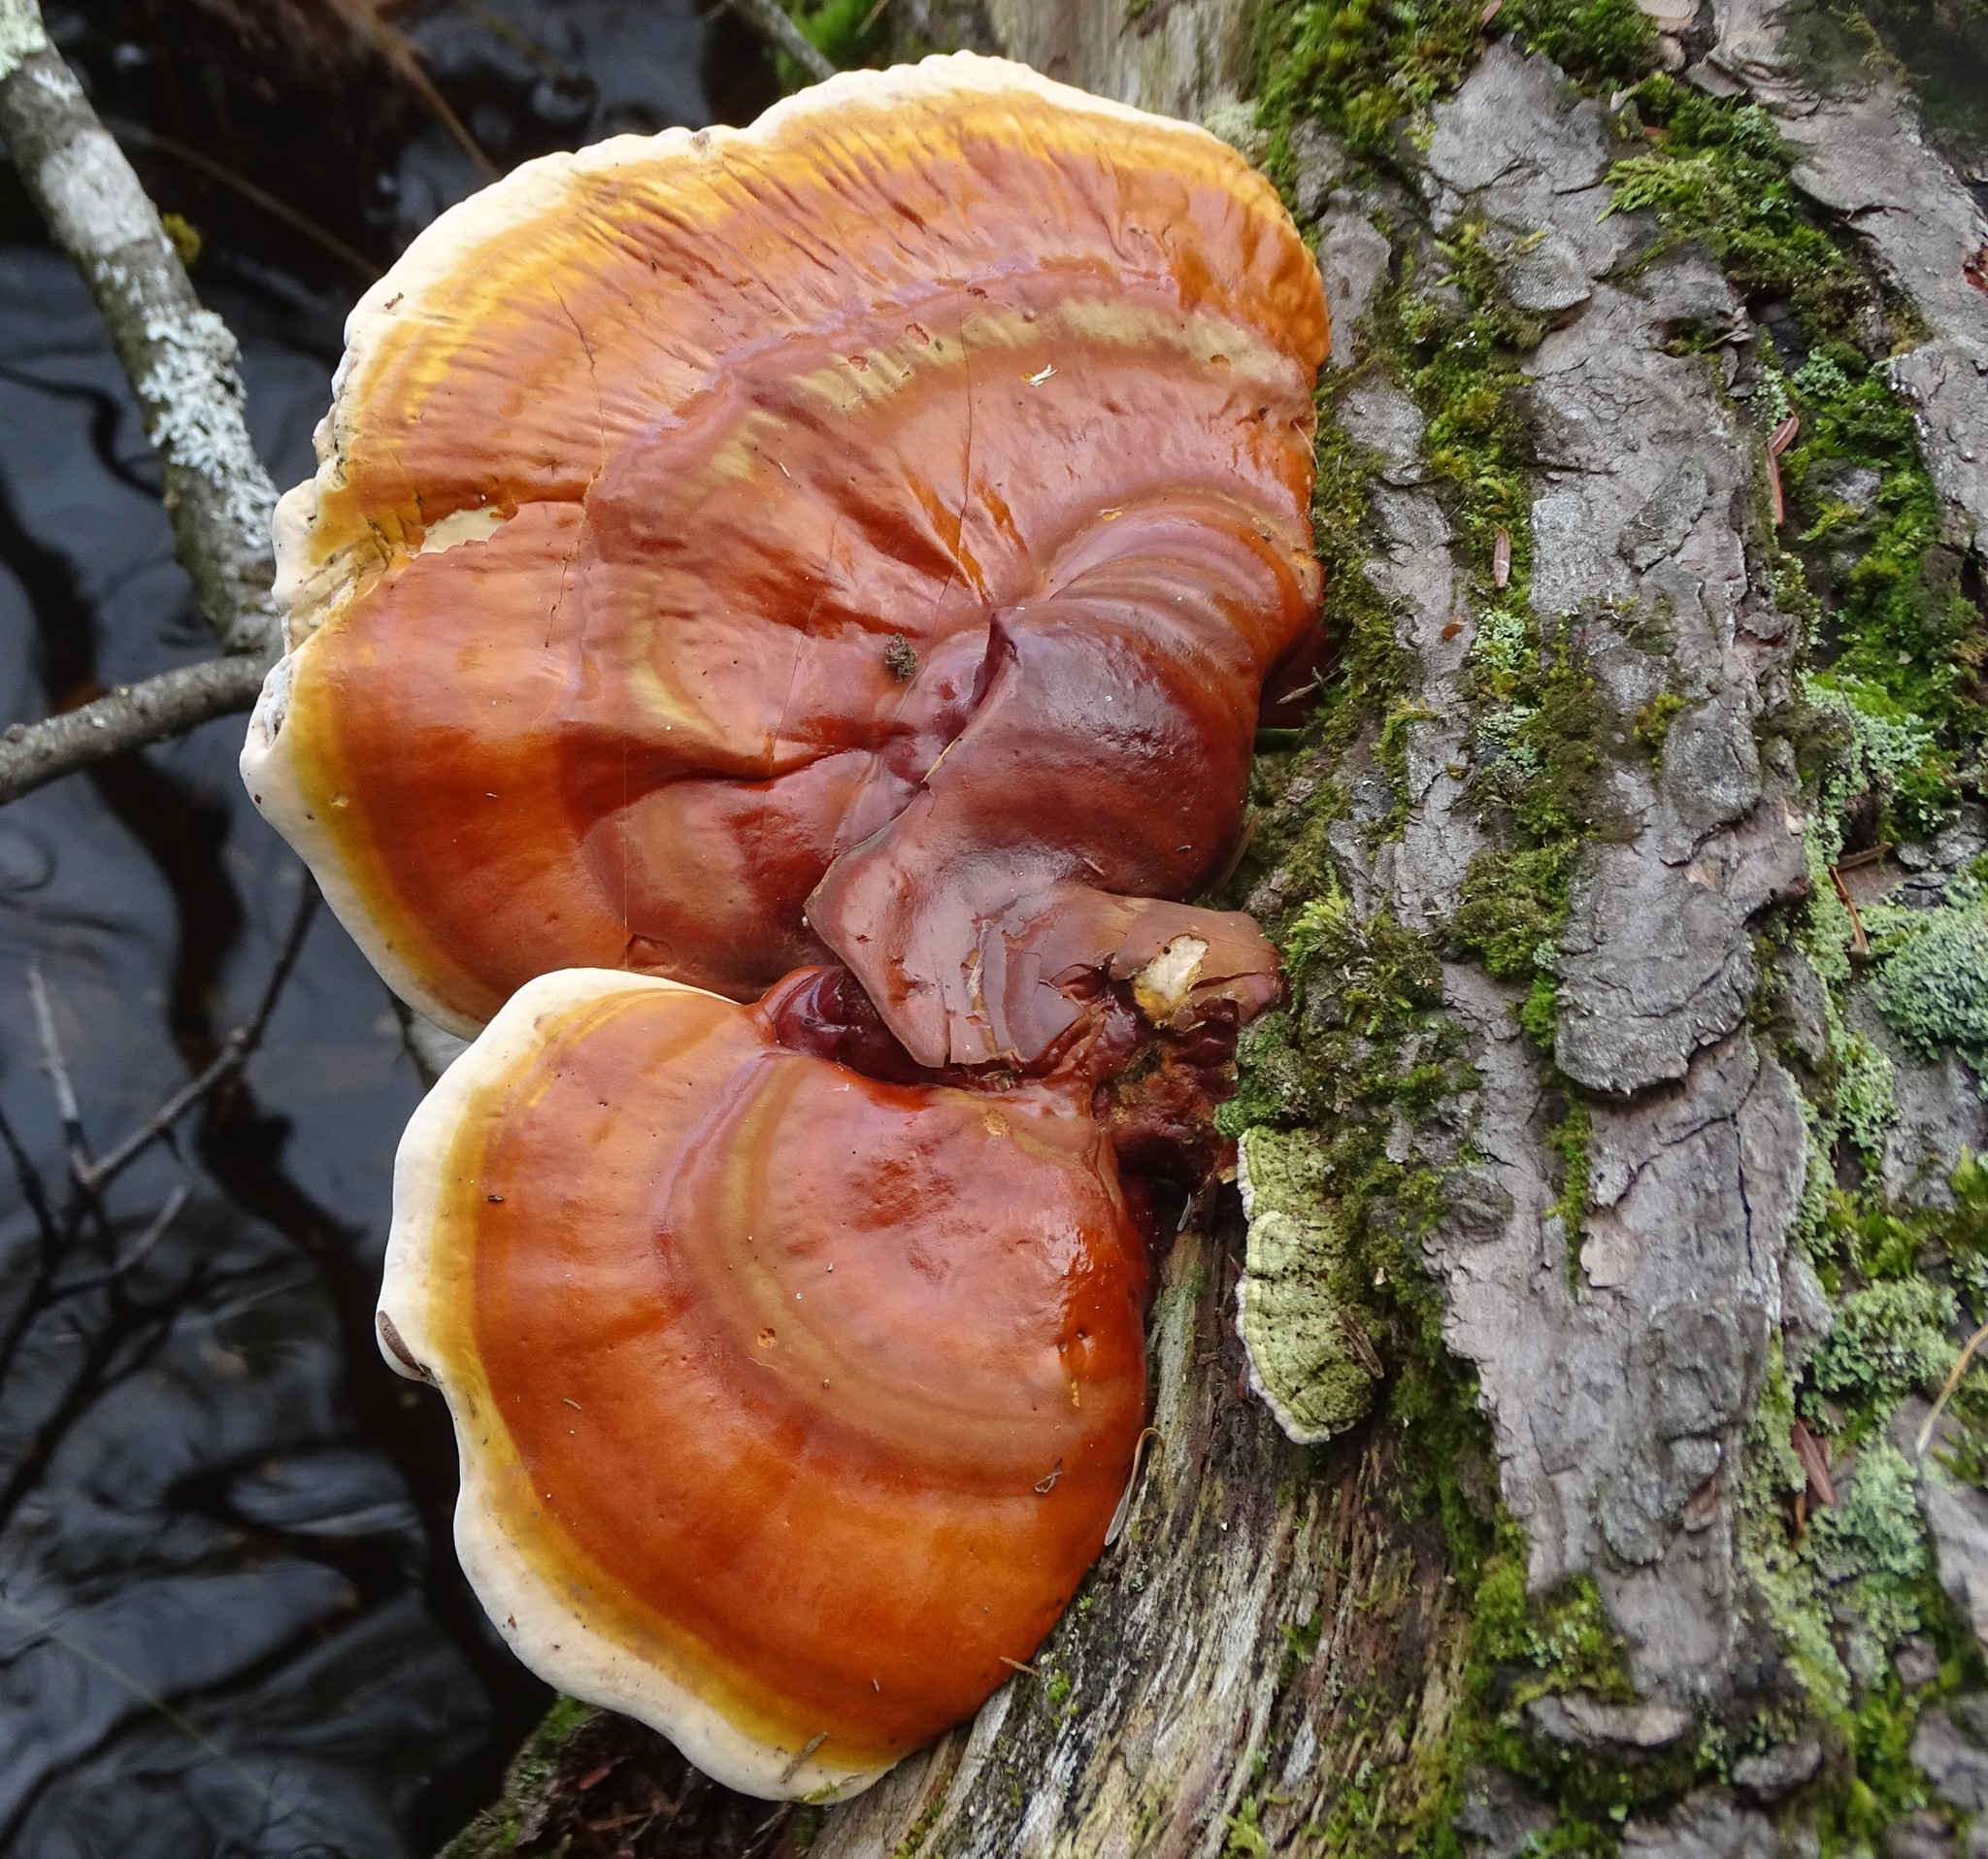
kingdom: Fungi
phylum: Basidiomycota
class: Agaricomycetes
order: Polyporales
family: Polyporaceae
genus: Ganoderma
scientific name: Ganoderma tsugae
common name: Hemlock varnish shelf
